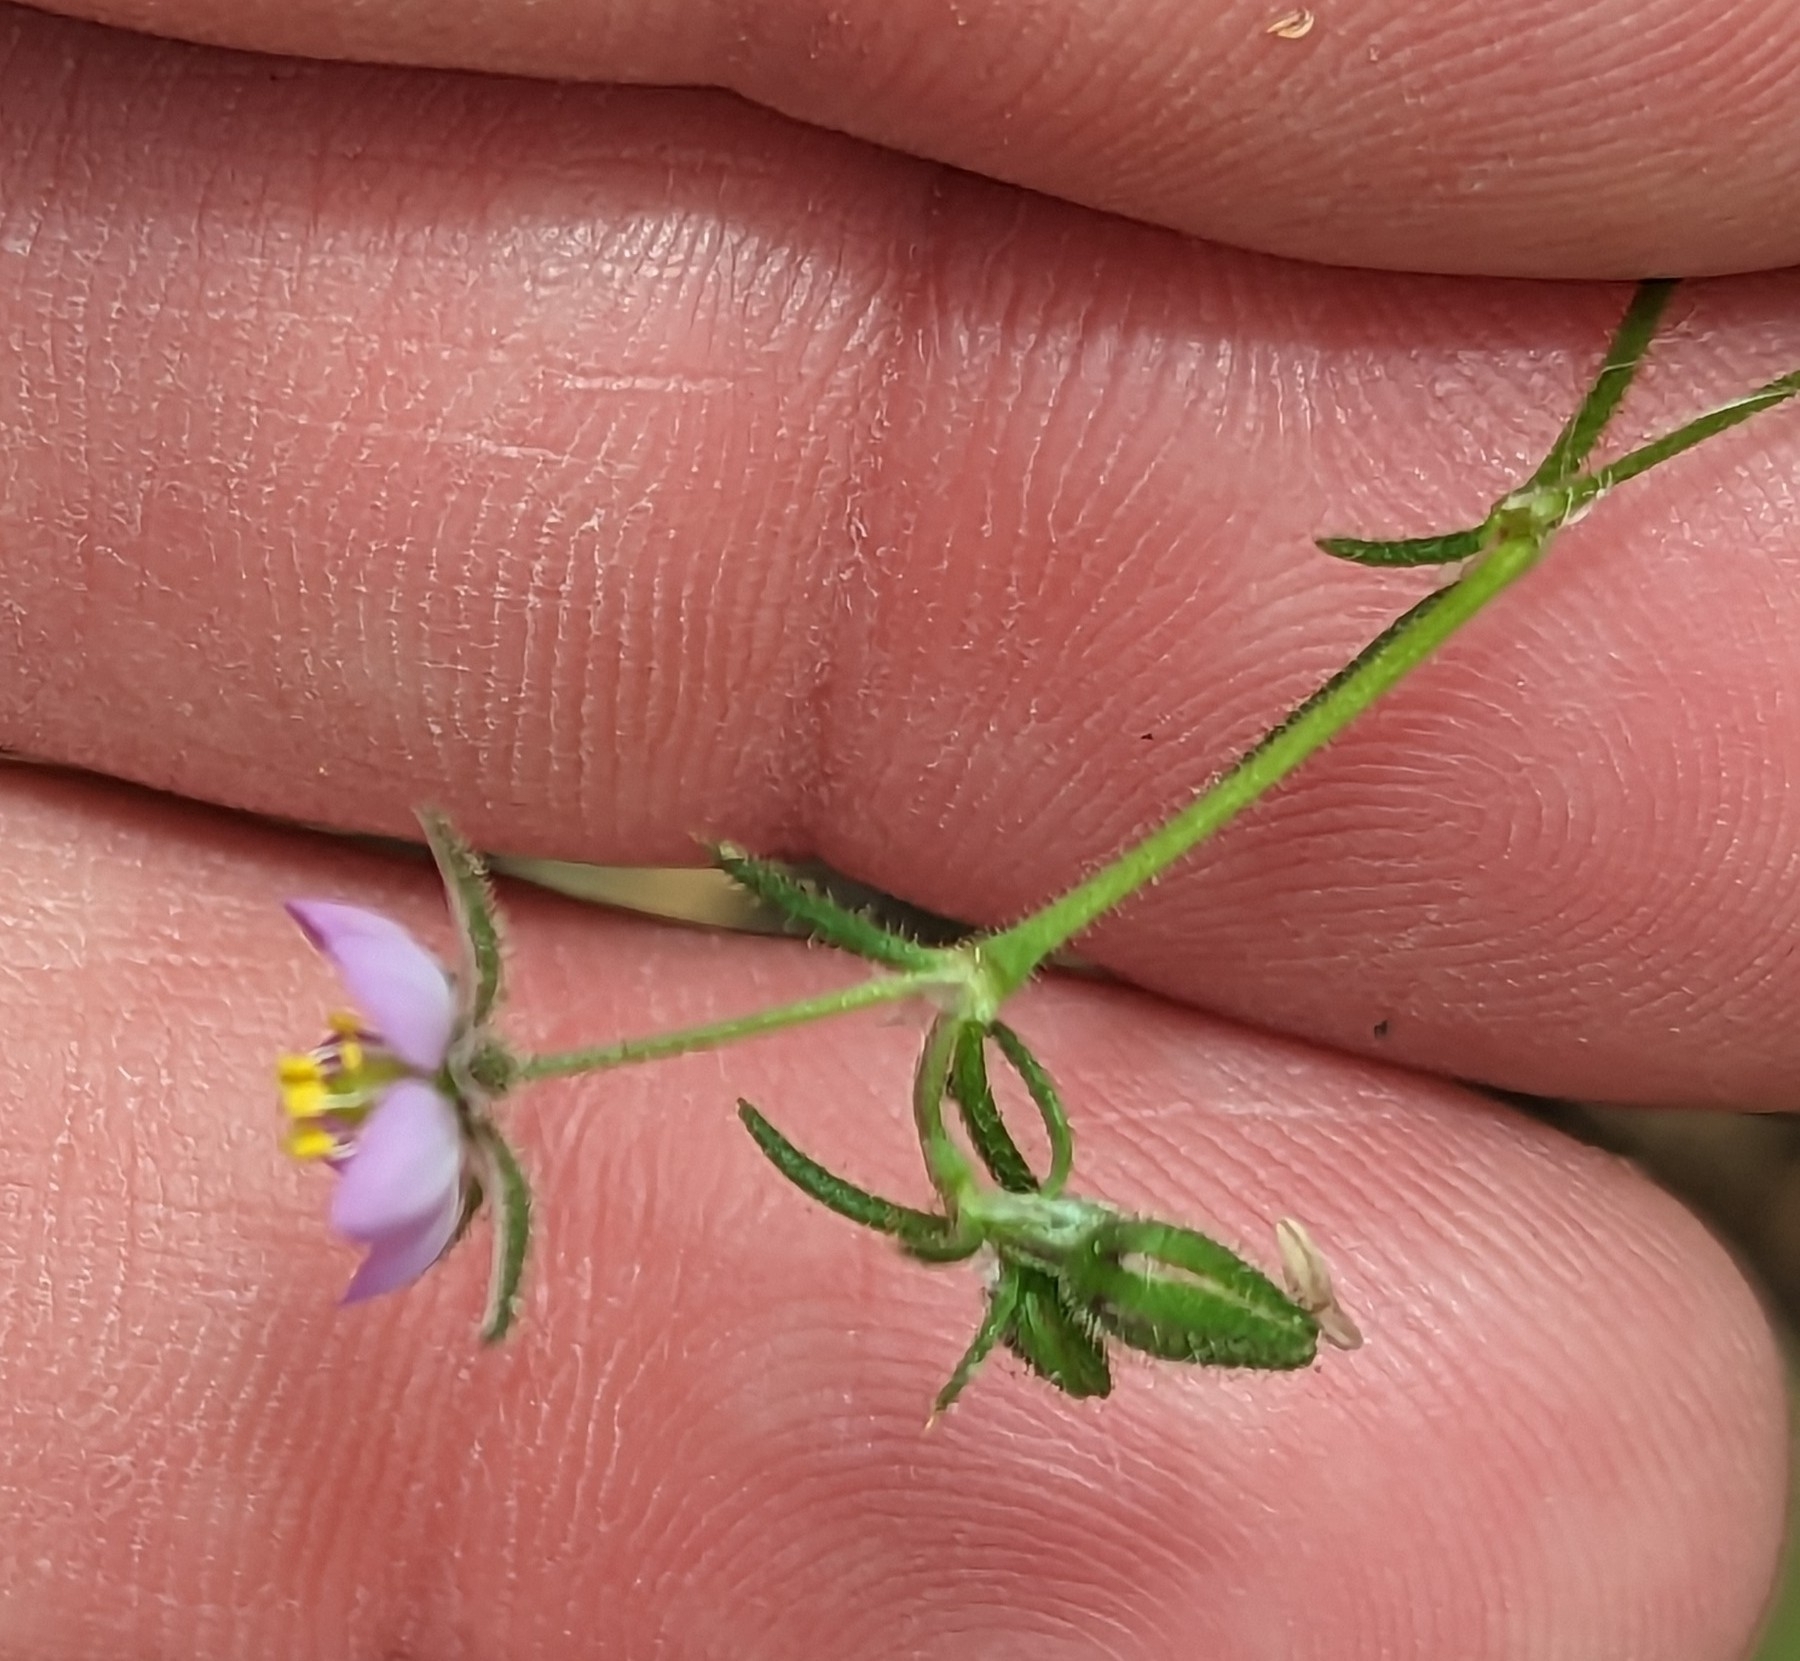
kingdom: Plantae
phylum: Tracheophyta
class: Magnoliopsida
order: Caryophyllales
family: Caryophyllaceae
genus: Spergularia
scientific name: Spergularia rubra
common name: Red sand-spurrey
